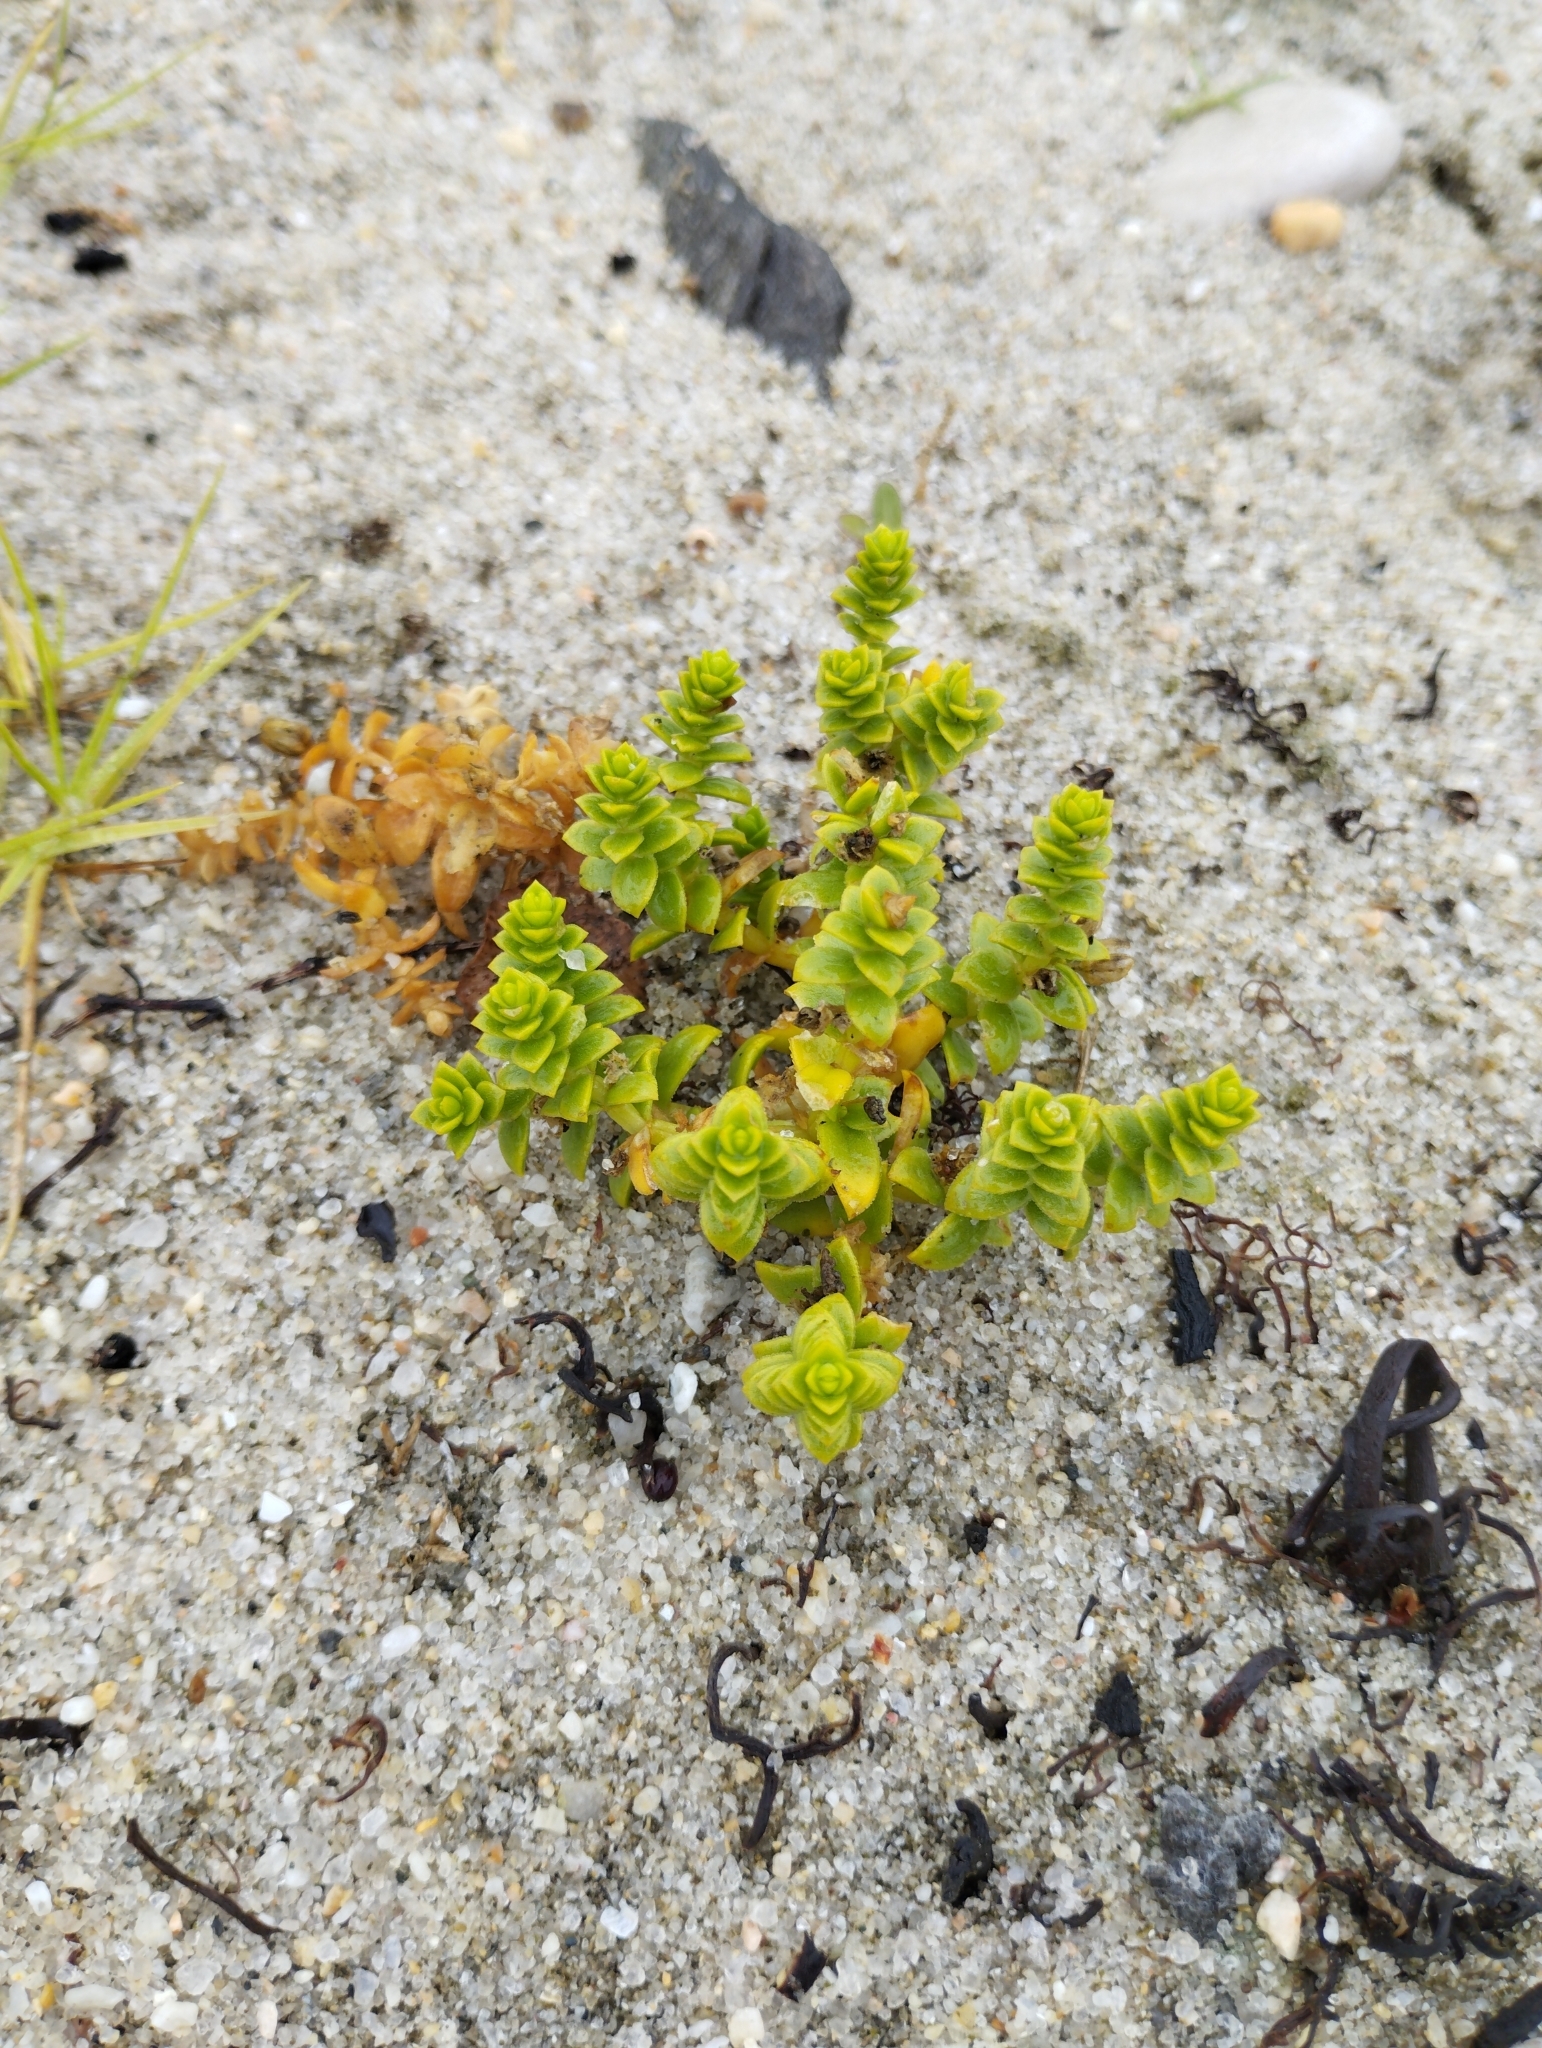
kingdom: Plantae
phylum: Tracheophyta
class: Magnoliopsida
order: Caryophyllales
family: Caryophyllaceae
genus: Honckenya
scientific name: Honckenya peploides
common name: Sea sandwort
